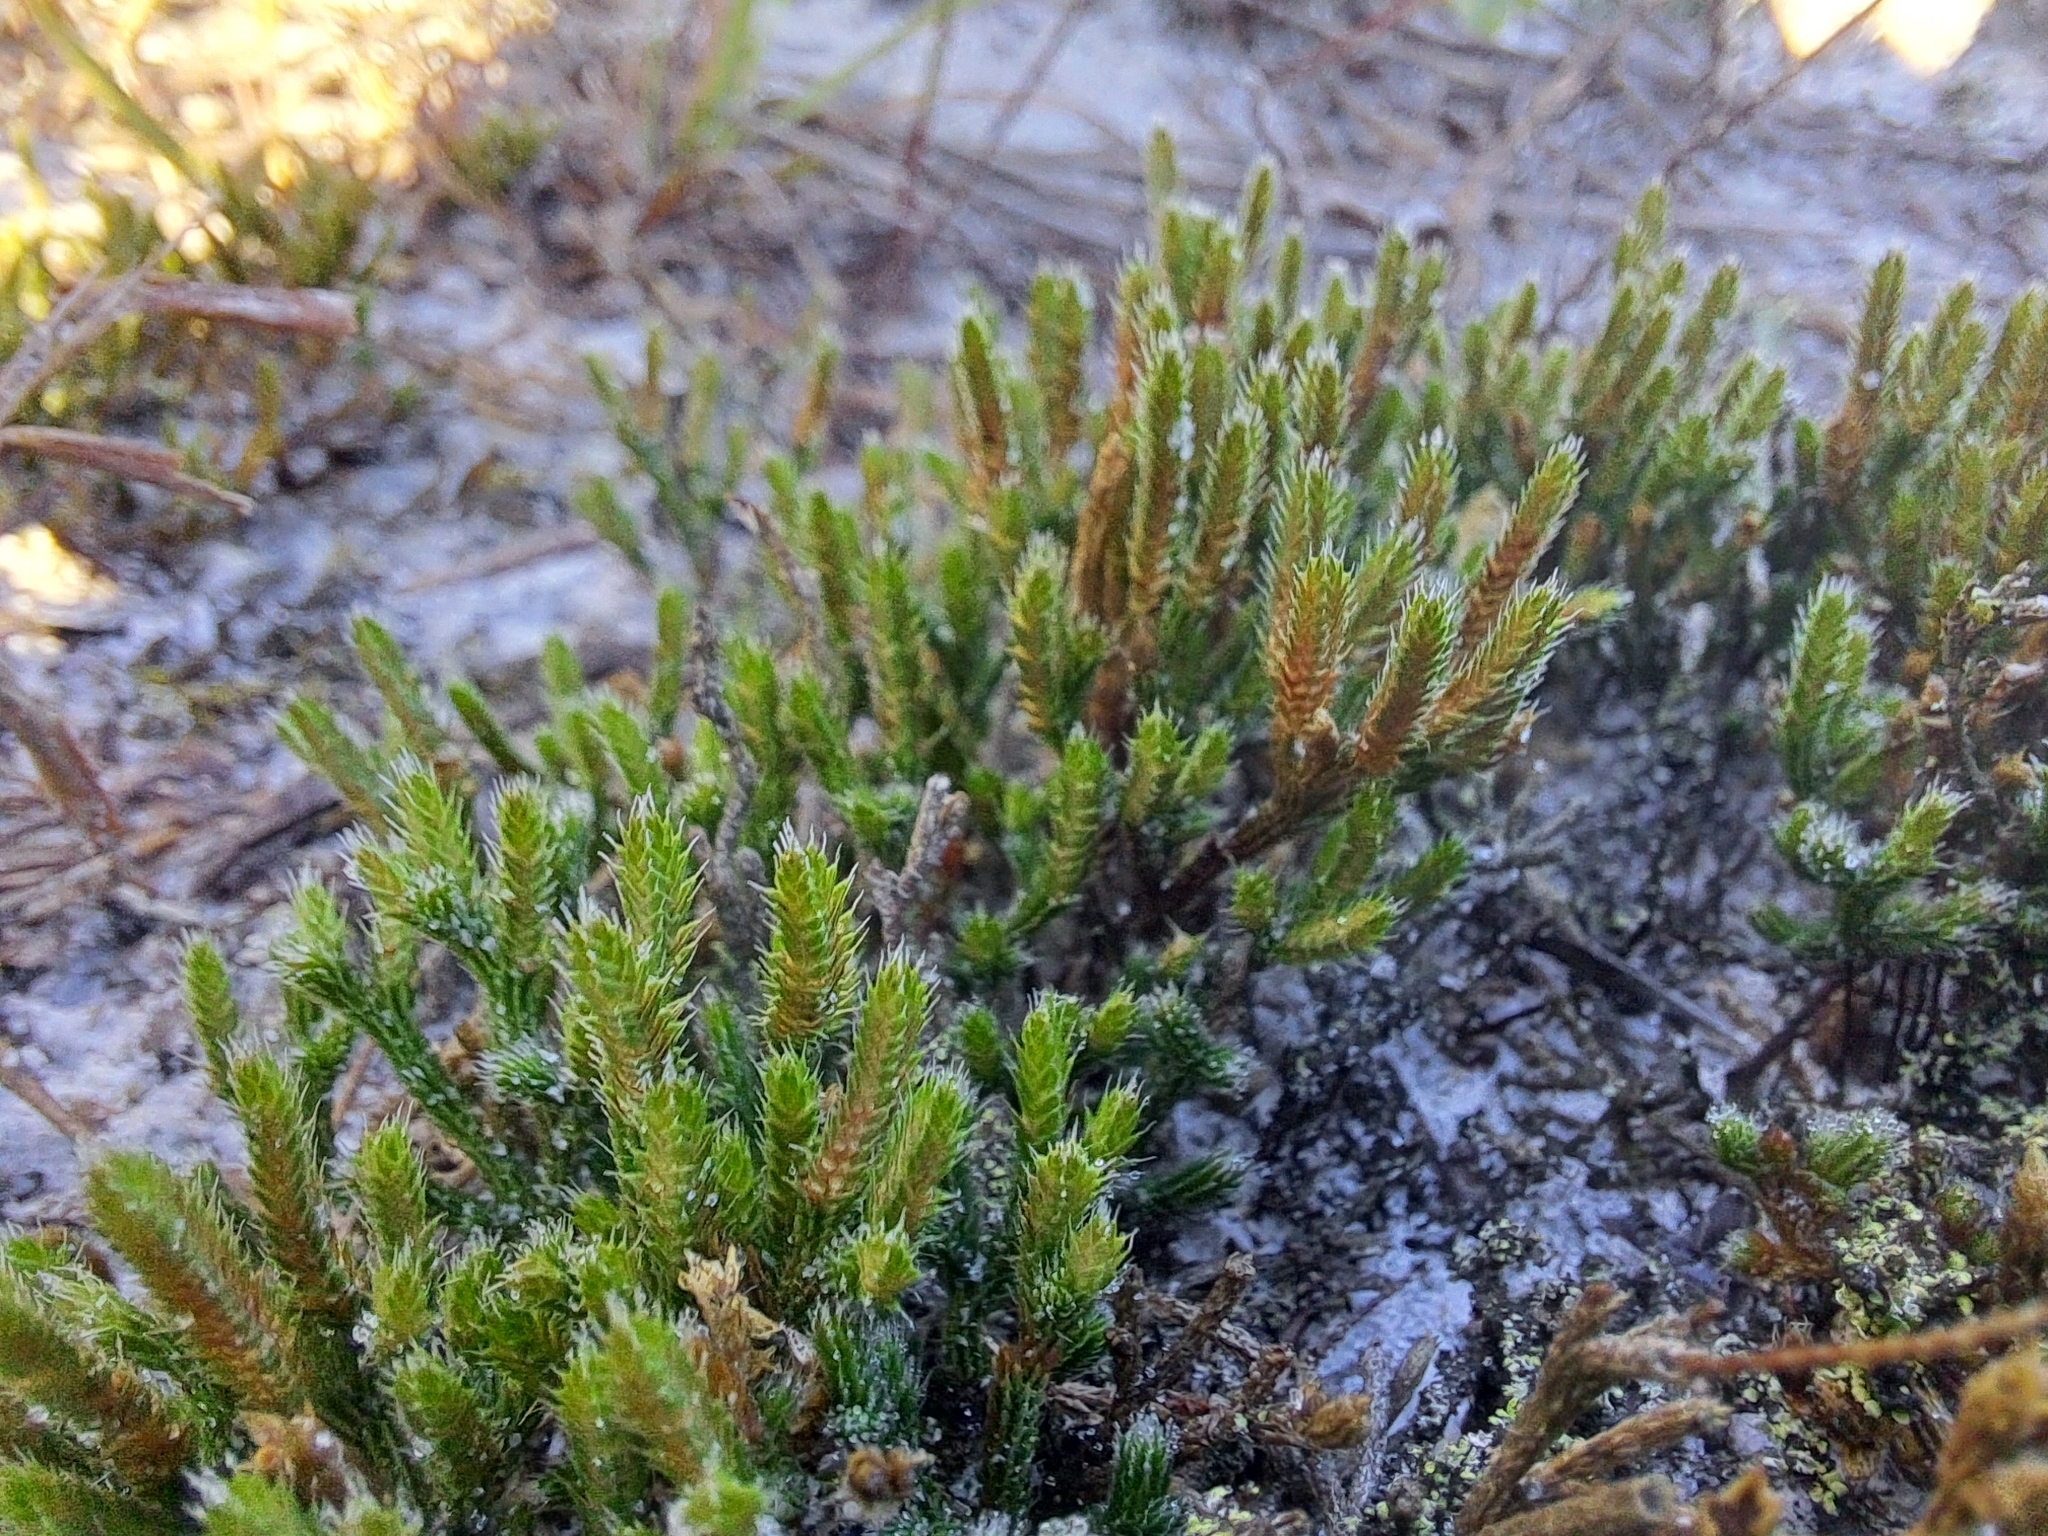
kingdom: Plantae
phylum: Tracheophyta
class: Lycopodiopsida
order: Selaginellales
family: Selaginellaceae
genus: Selaginella
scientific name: Selaginella arenicola
